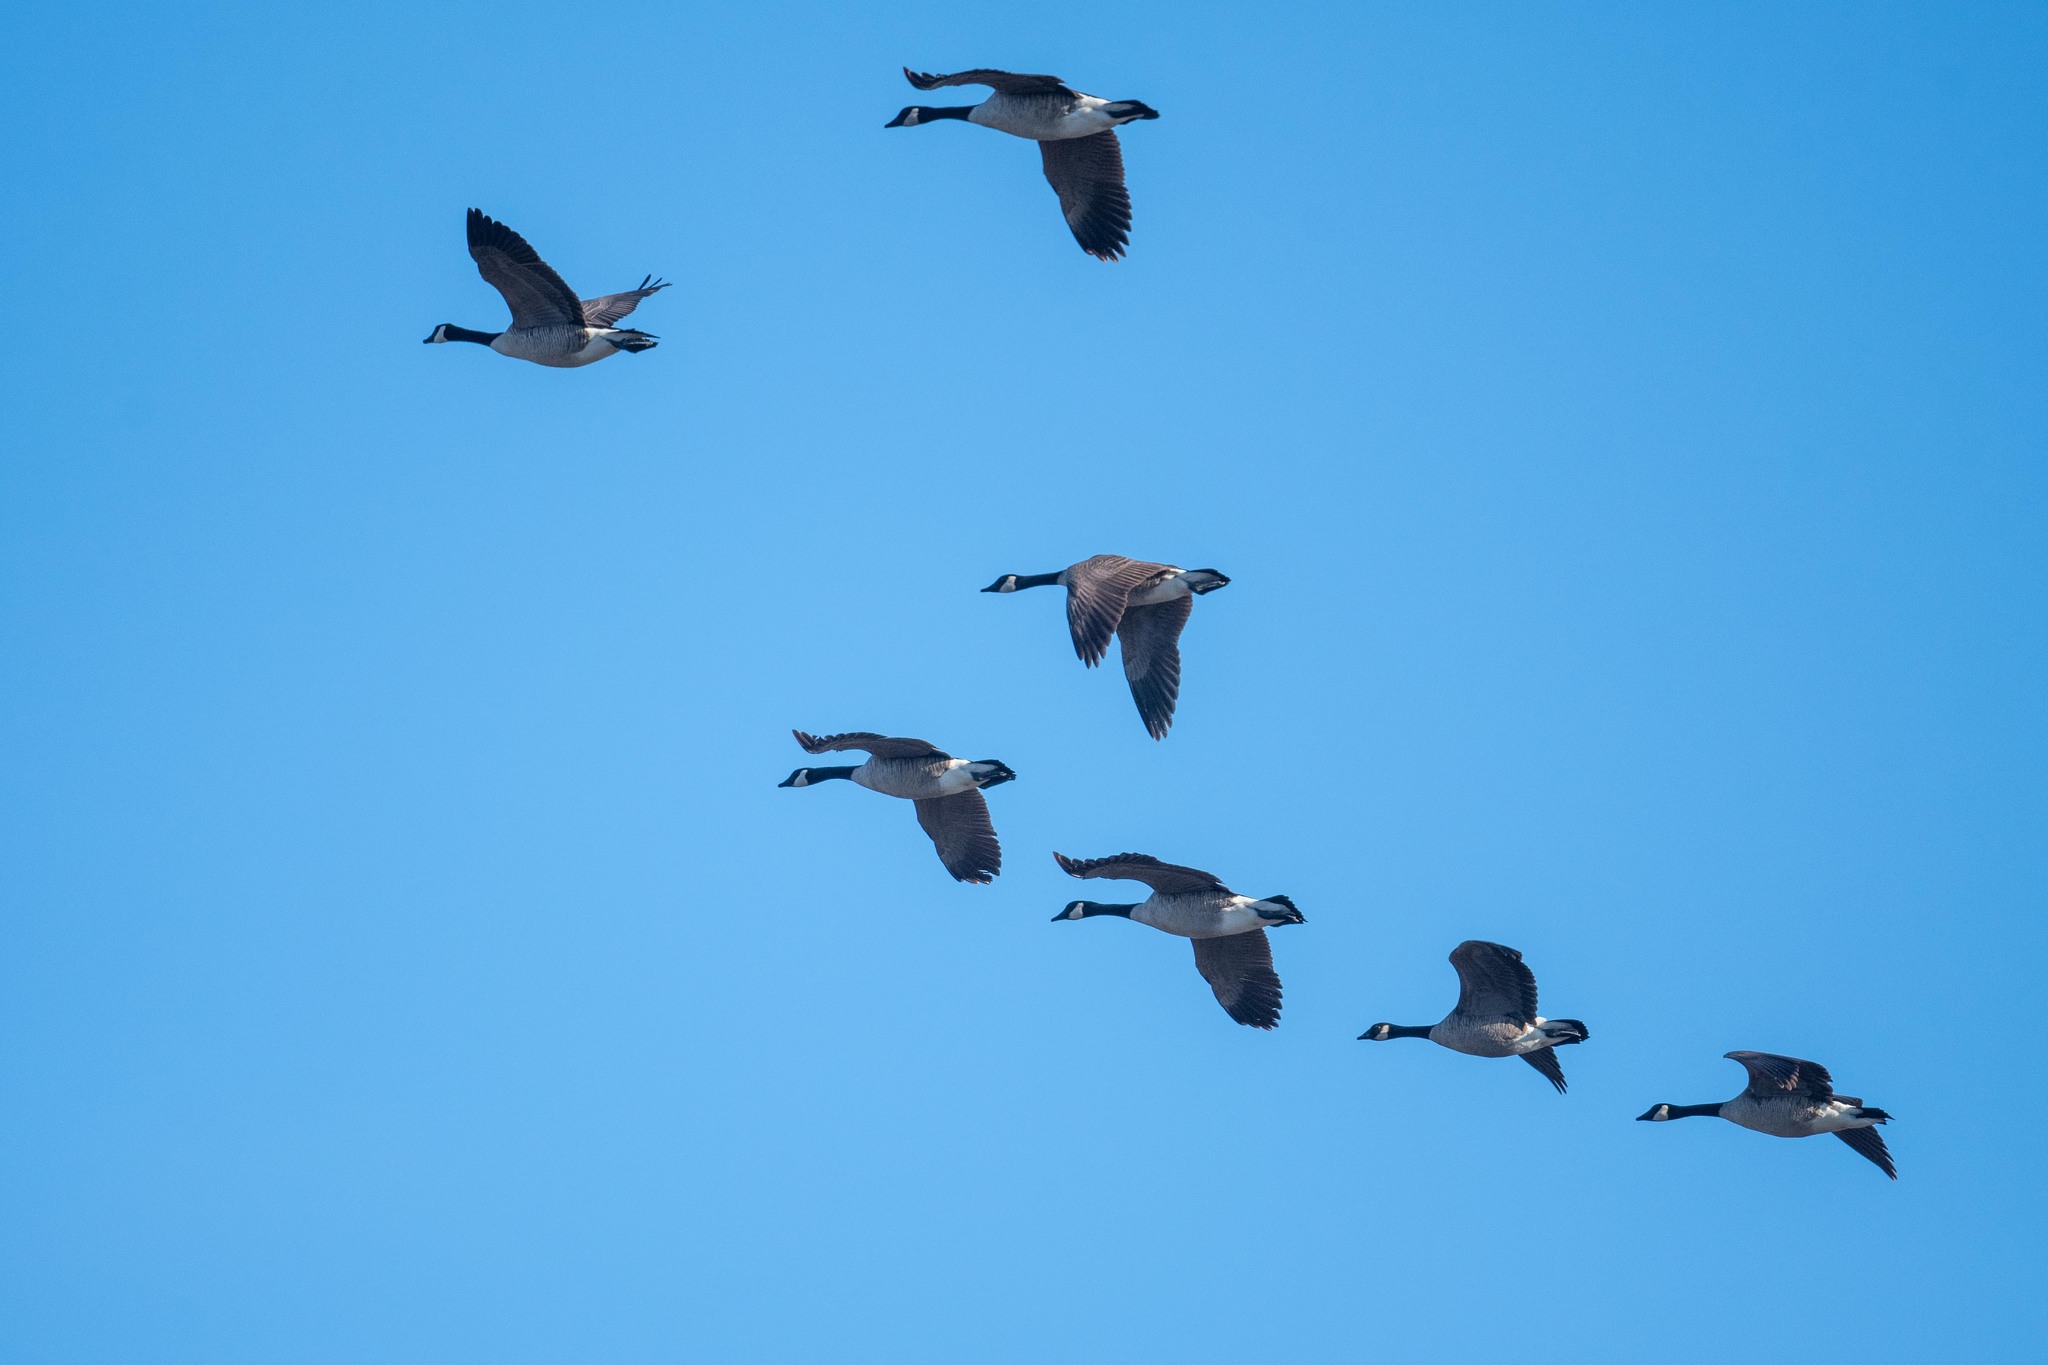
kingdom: Animalia
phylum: Chordata
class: Aves
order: Anseriformes
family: Anatidae
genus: Branta
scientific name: Branta canadensis
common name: Canada goose
